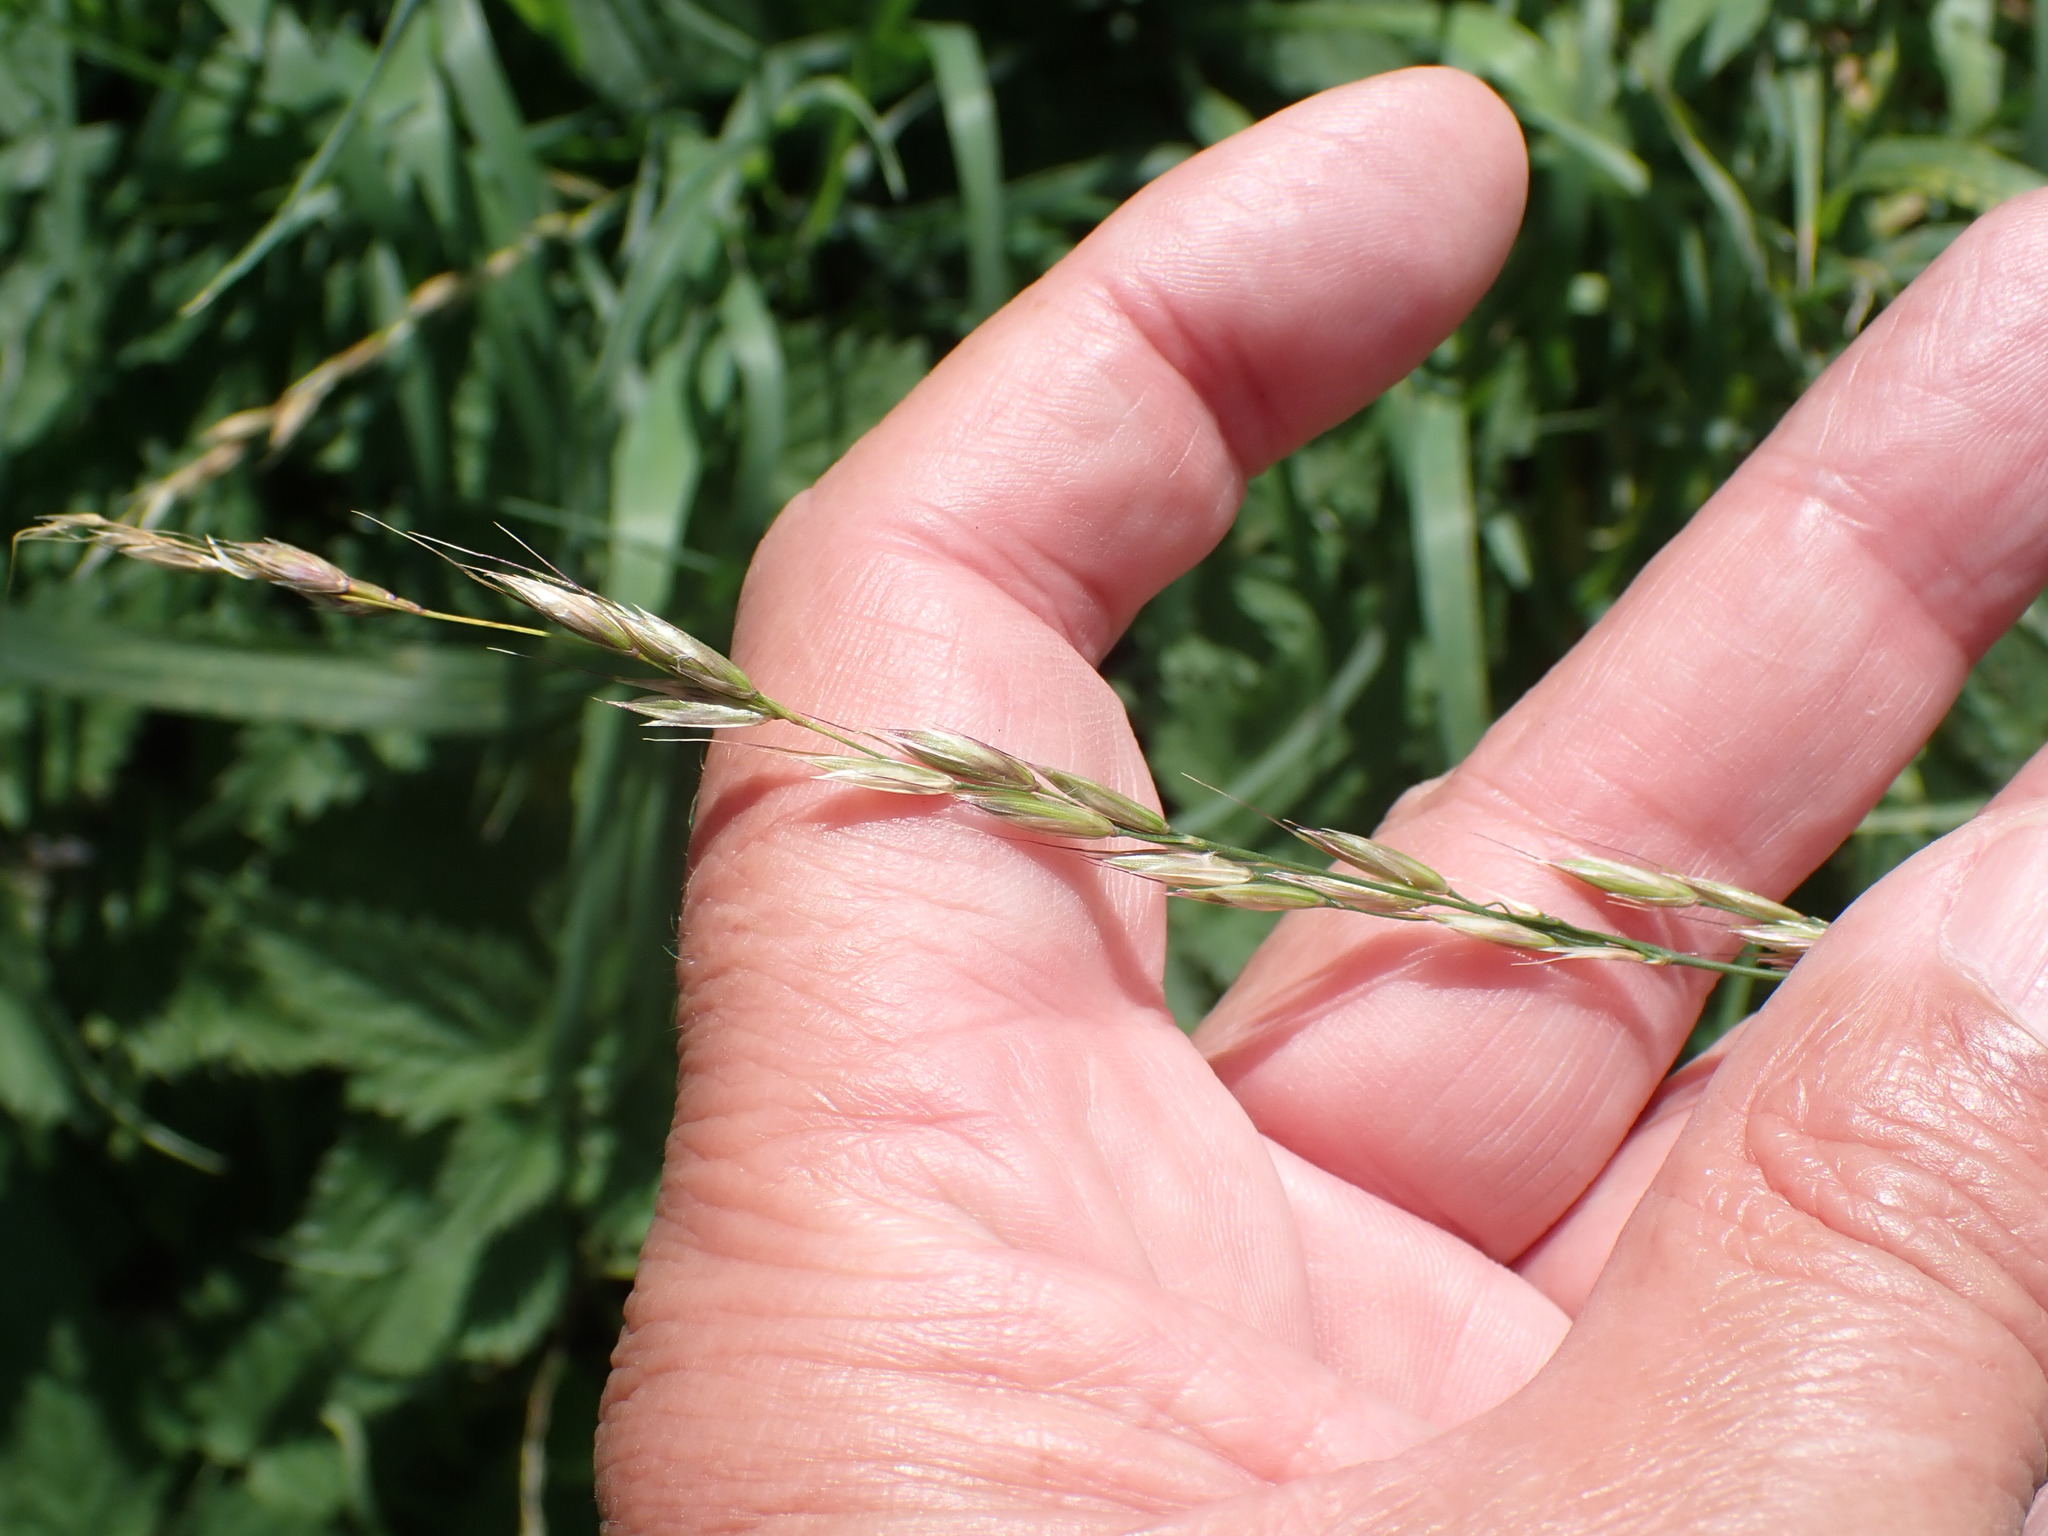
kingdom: Plantae
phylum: Tracheophyta
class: Liliopsida
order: Poales
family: Poaceae
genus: Arrhenatherum
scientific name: Arrhenatherum elatius
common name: Tall oatgrass
